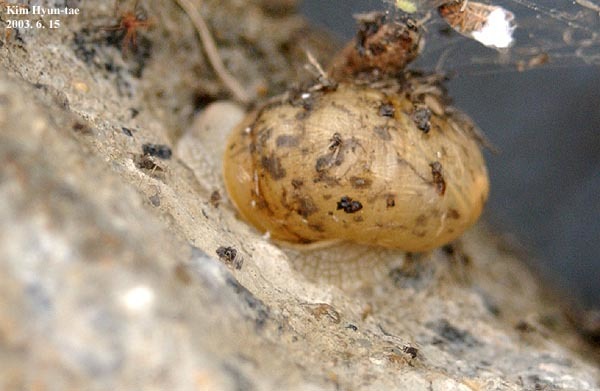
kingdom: Animalia
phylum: Mollusca
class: Gastropoda
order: Stylommatophora
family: Camaenidae
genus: Acusta
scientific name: Acusta redfieldi
